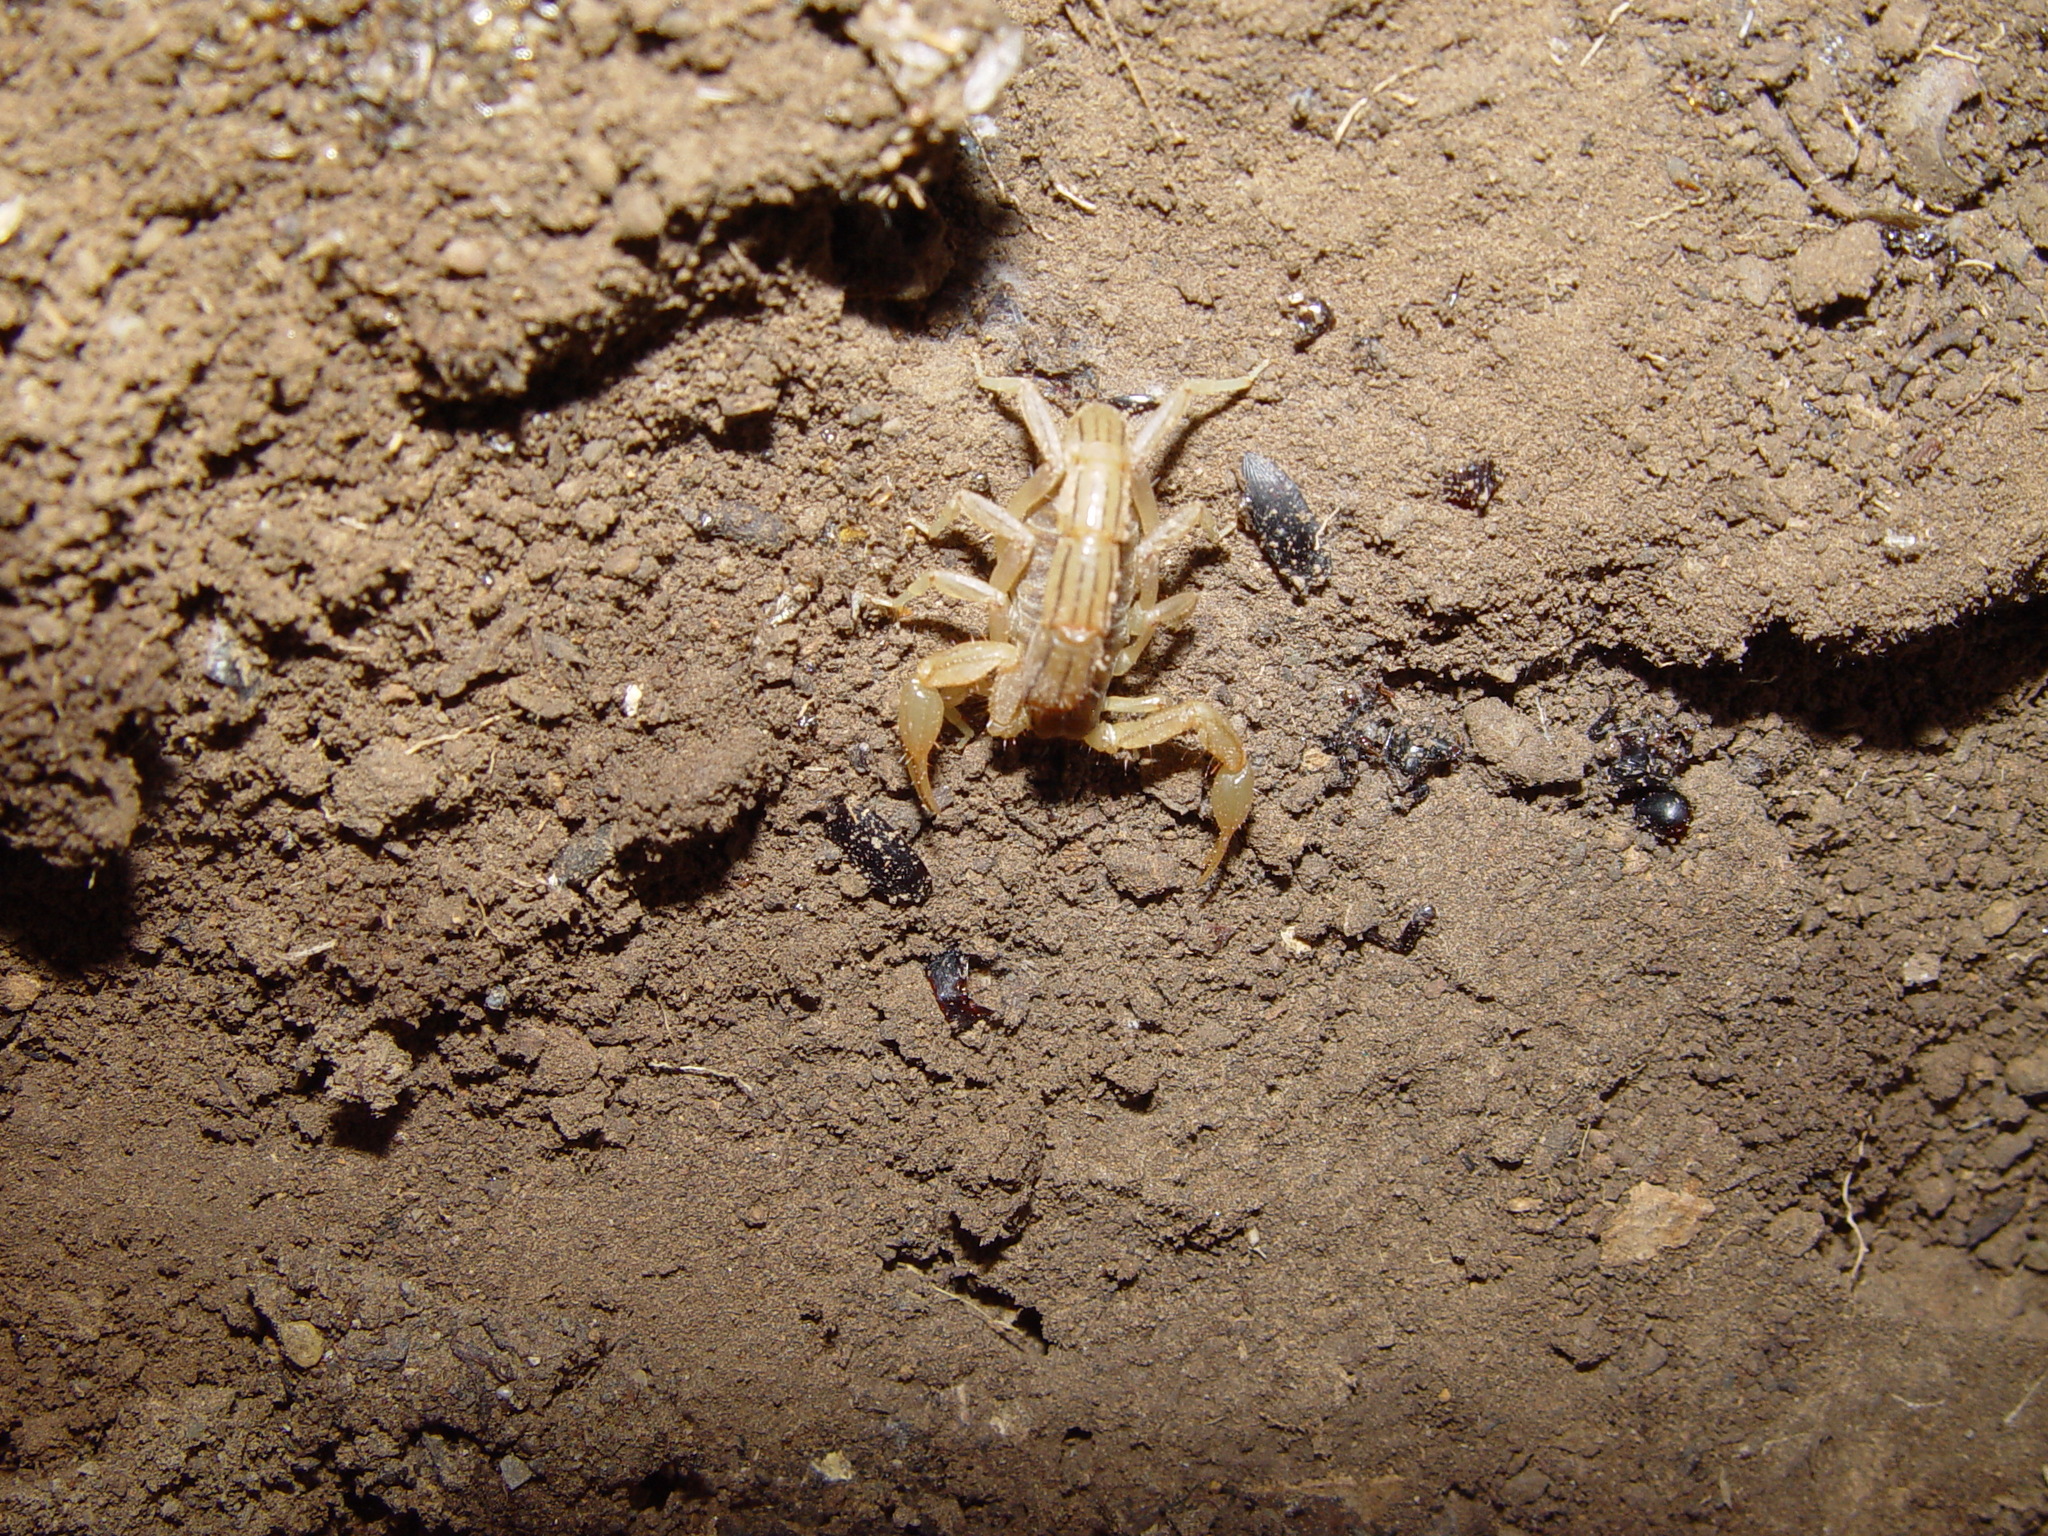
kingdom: Animalia
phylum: Arthropoda
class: Arachnida
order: Scorpiones
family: Vaejovidae
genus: Paravaejovis
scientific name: Paravaejovis spinigerus
